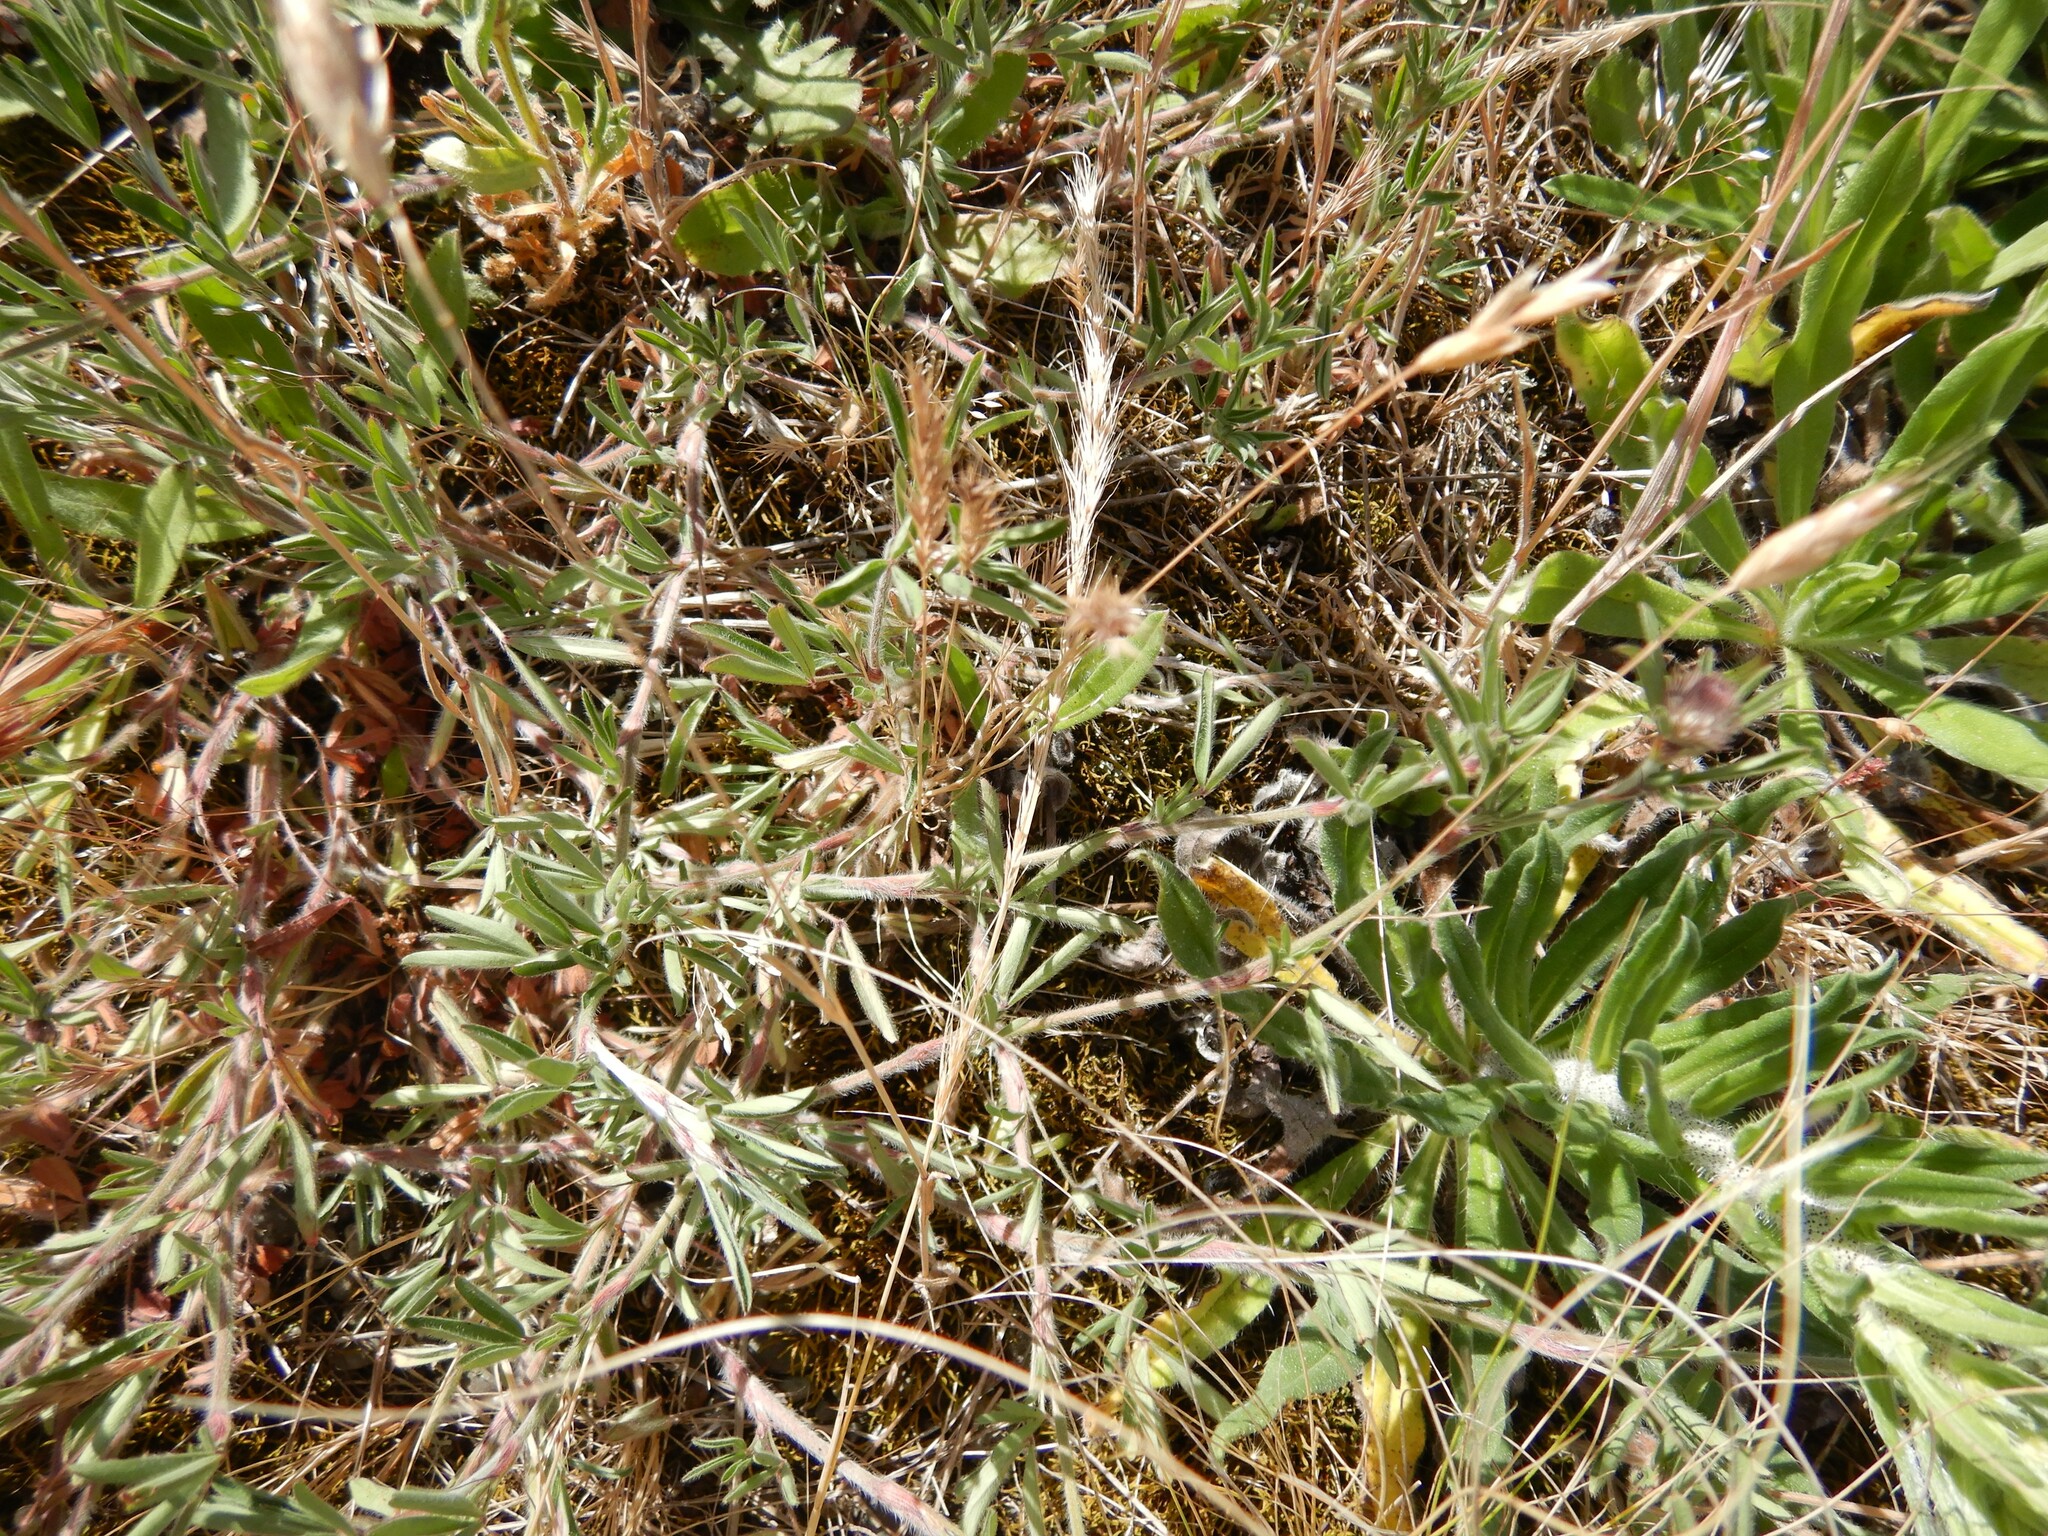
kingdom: Plantae
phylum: Tracheophyta
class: Magnoliopsida
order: Fabales
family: Fabaceae
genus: Trifolium
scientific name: Trifolium arvense
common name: Hare's-foot clover
